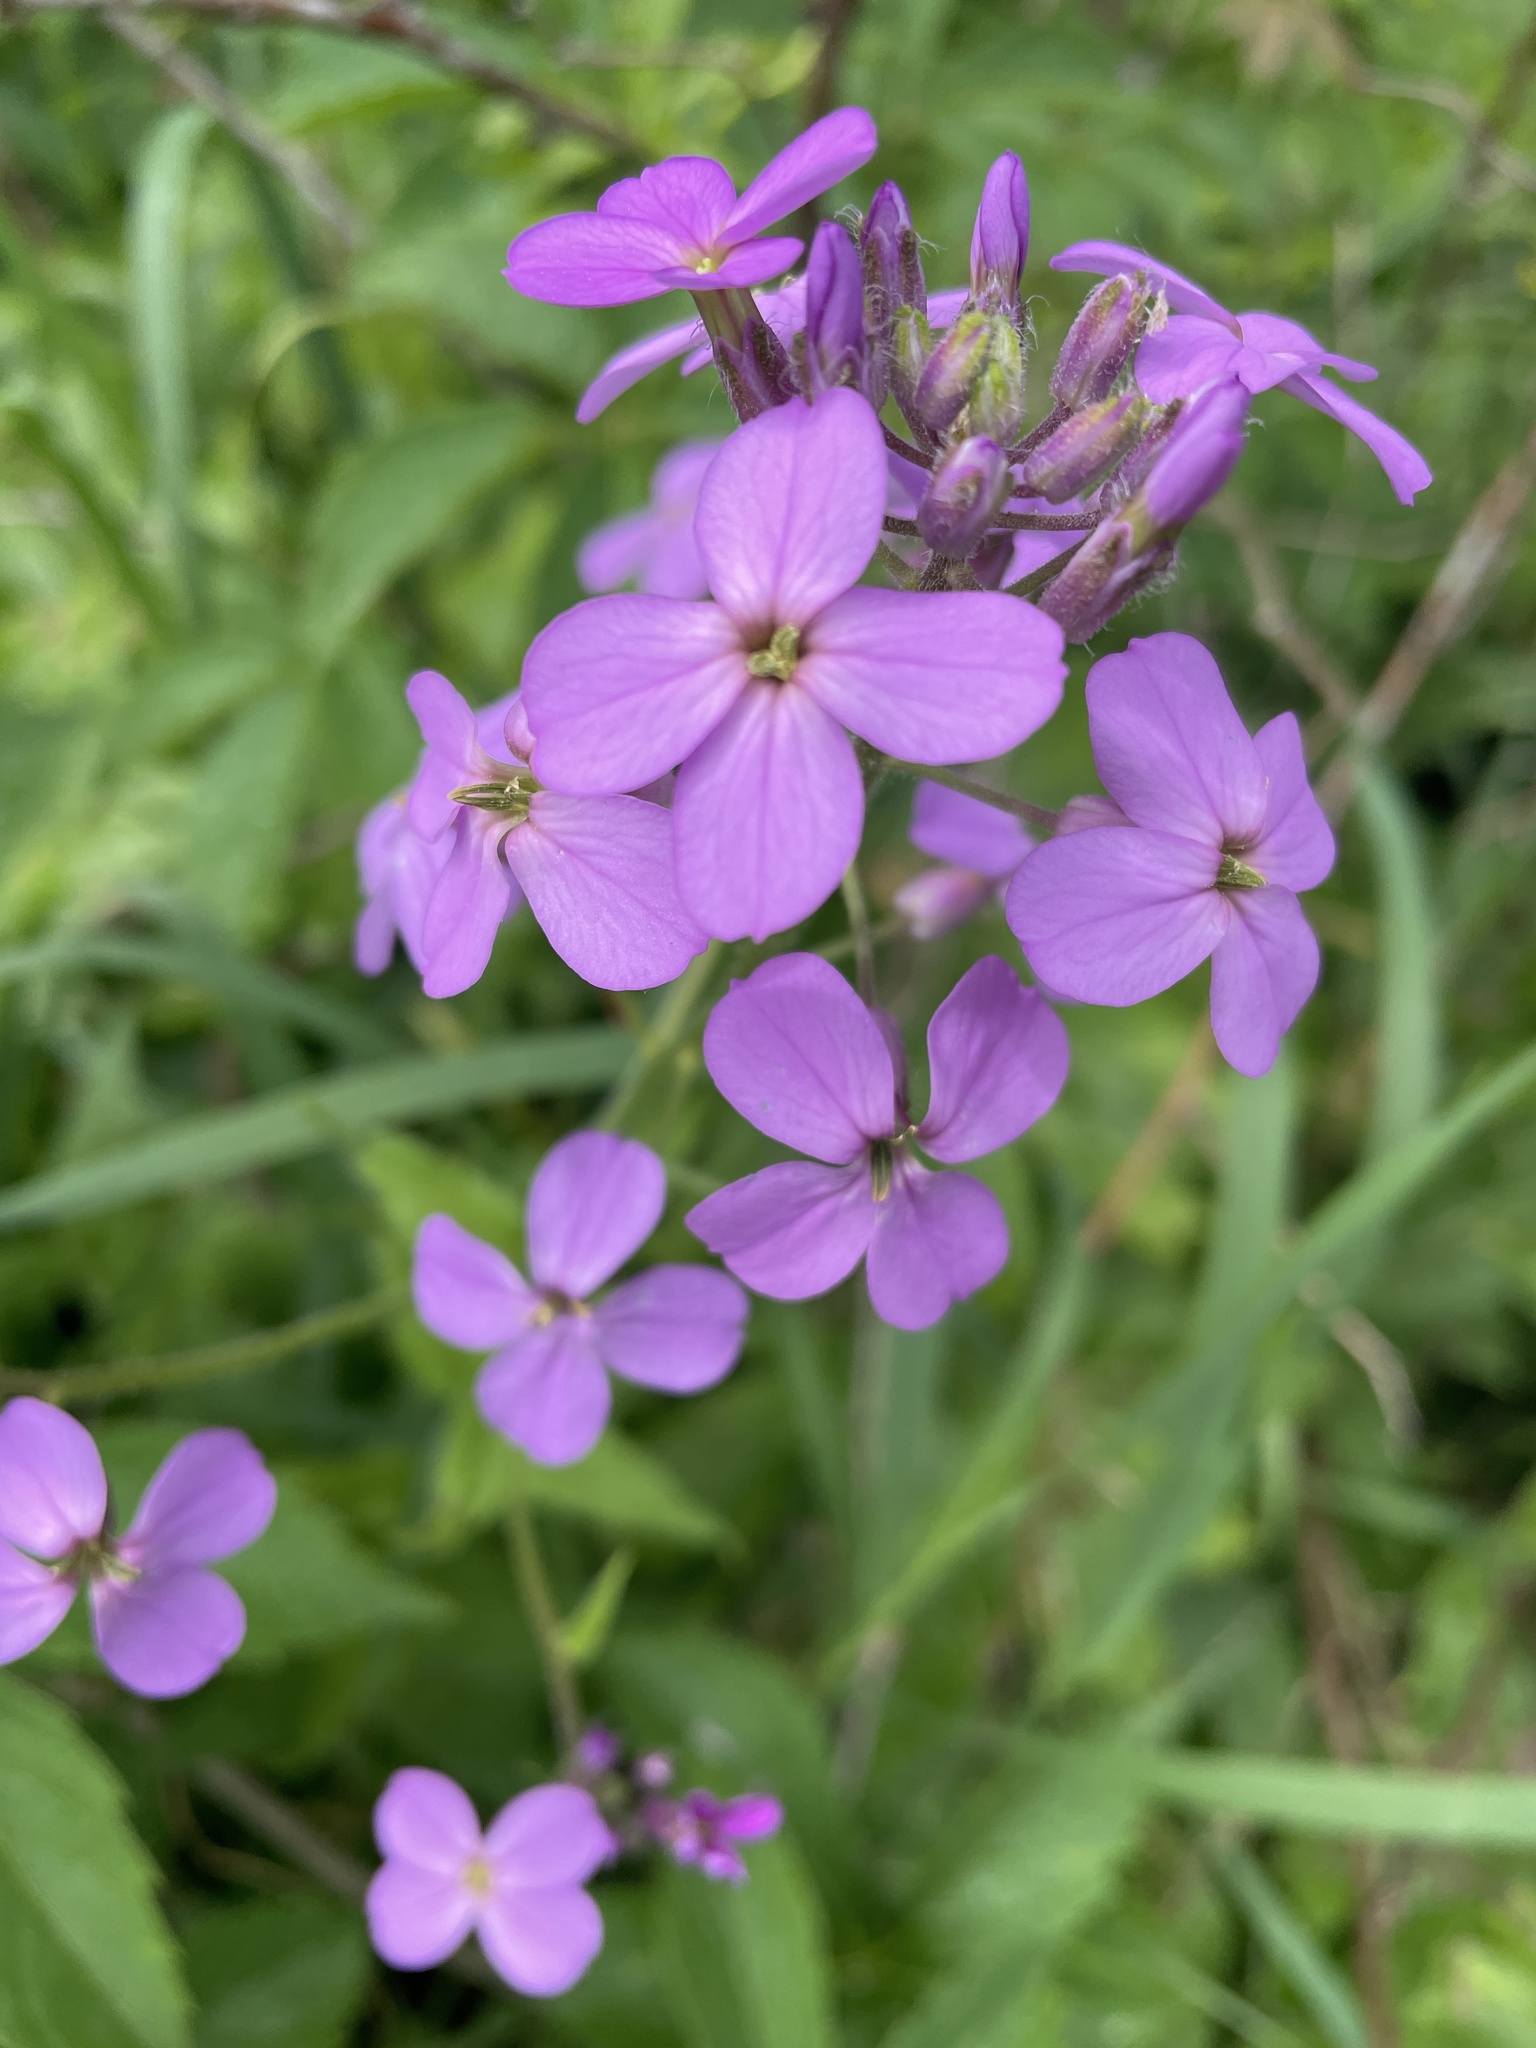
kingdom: Plantae
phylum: Tracheophyta
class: Magnoliopsida
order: Brassicales
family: Brassicaceae
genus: Hesperis
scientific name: Hesperis matronalis
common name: Dame's-violet
